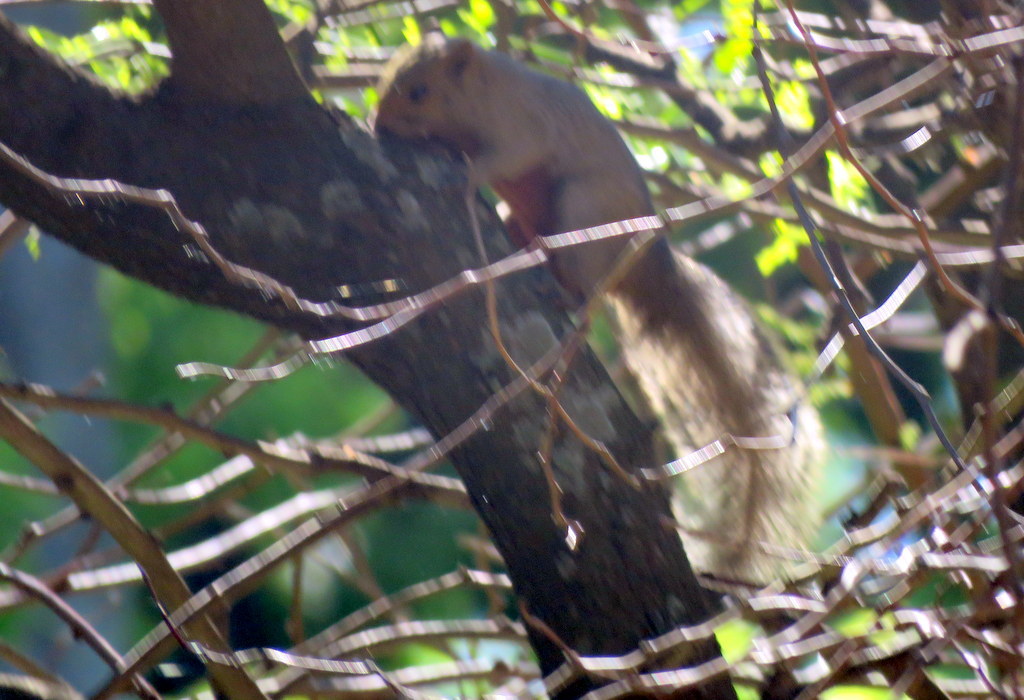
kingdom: Animalia
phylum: Chordata
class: Mammalia
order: Rodentia
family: Sciuridae
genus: Callosciurus
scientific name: Callosciurus erythraeus
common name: Pallas's squirrel
